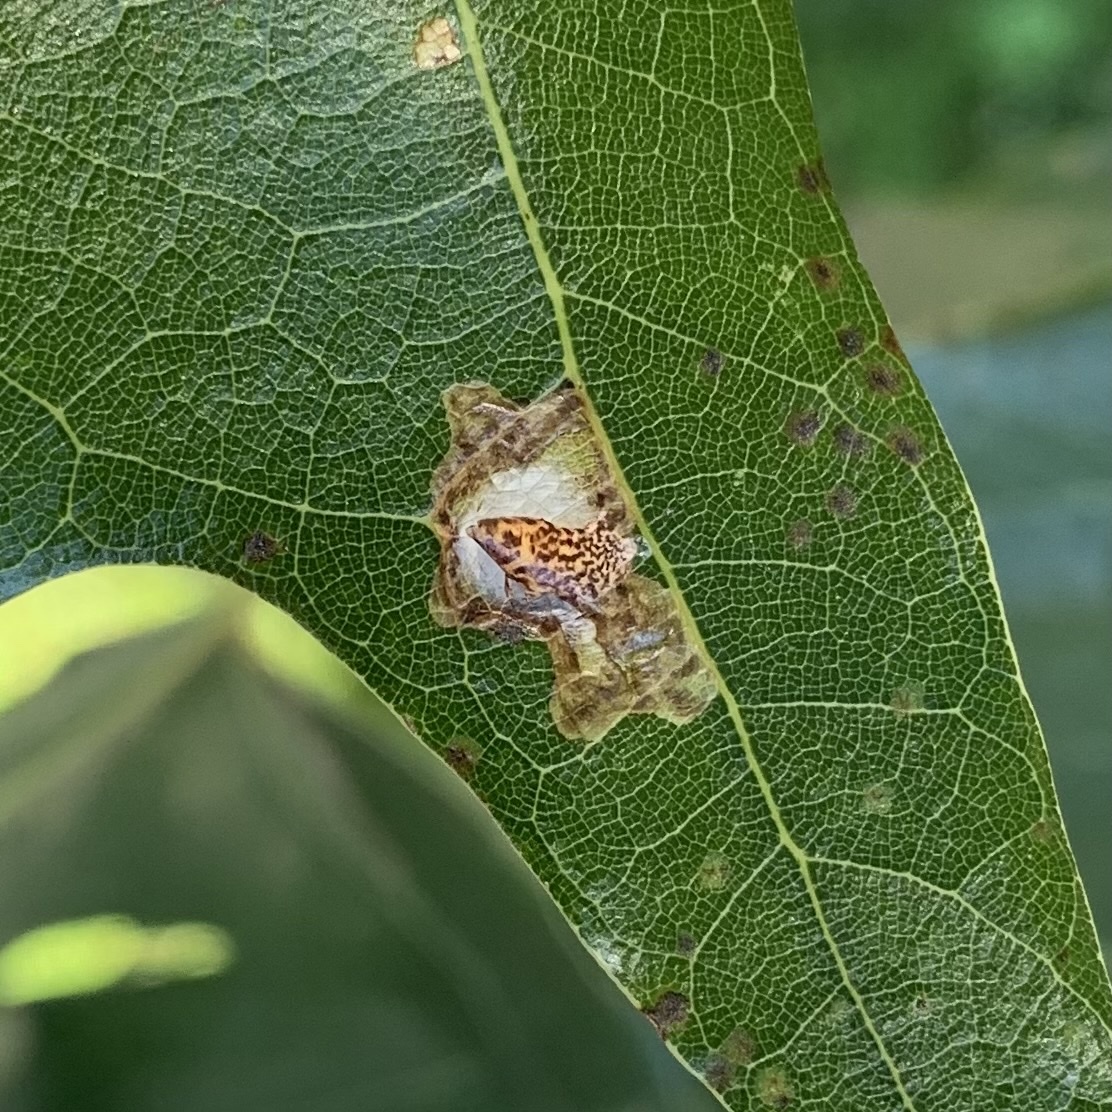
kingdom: Animalia
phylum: Arthropoda
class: Insecta
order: Lepidoptera
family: Tischeriidae
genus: Tischeria
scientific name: Tischeria quercitella
